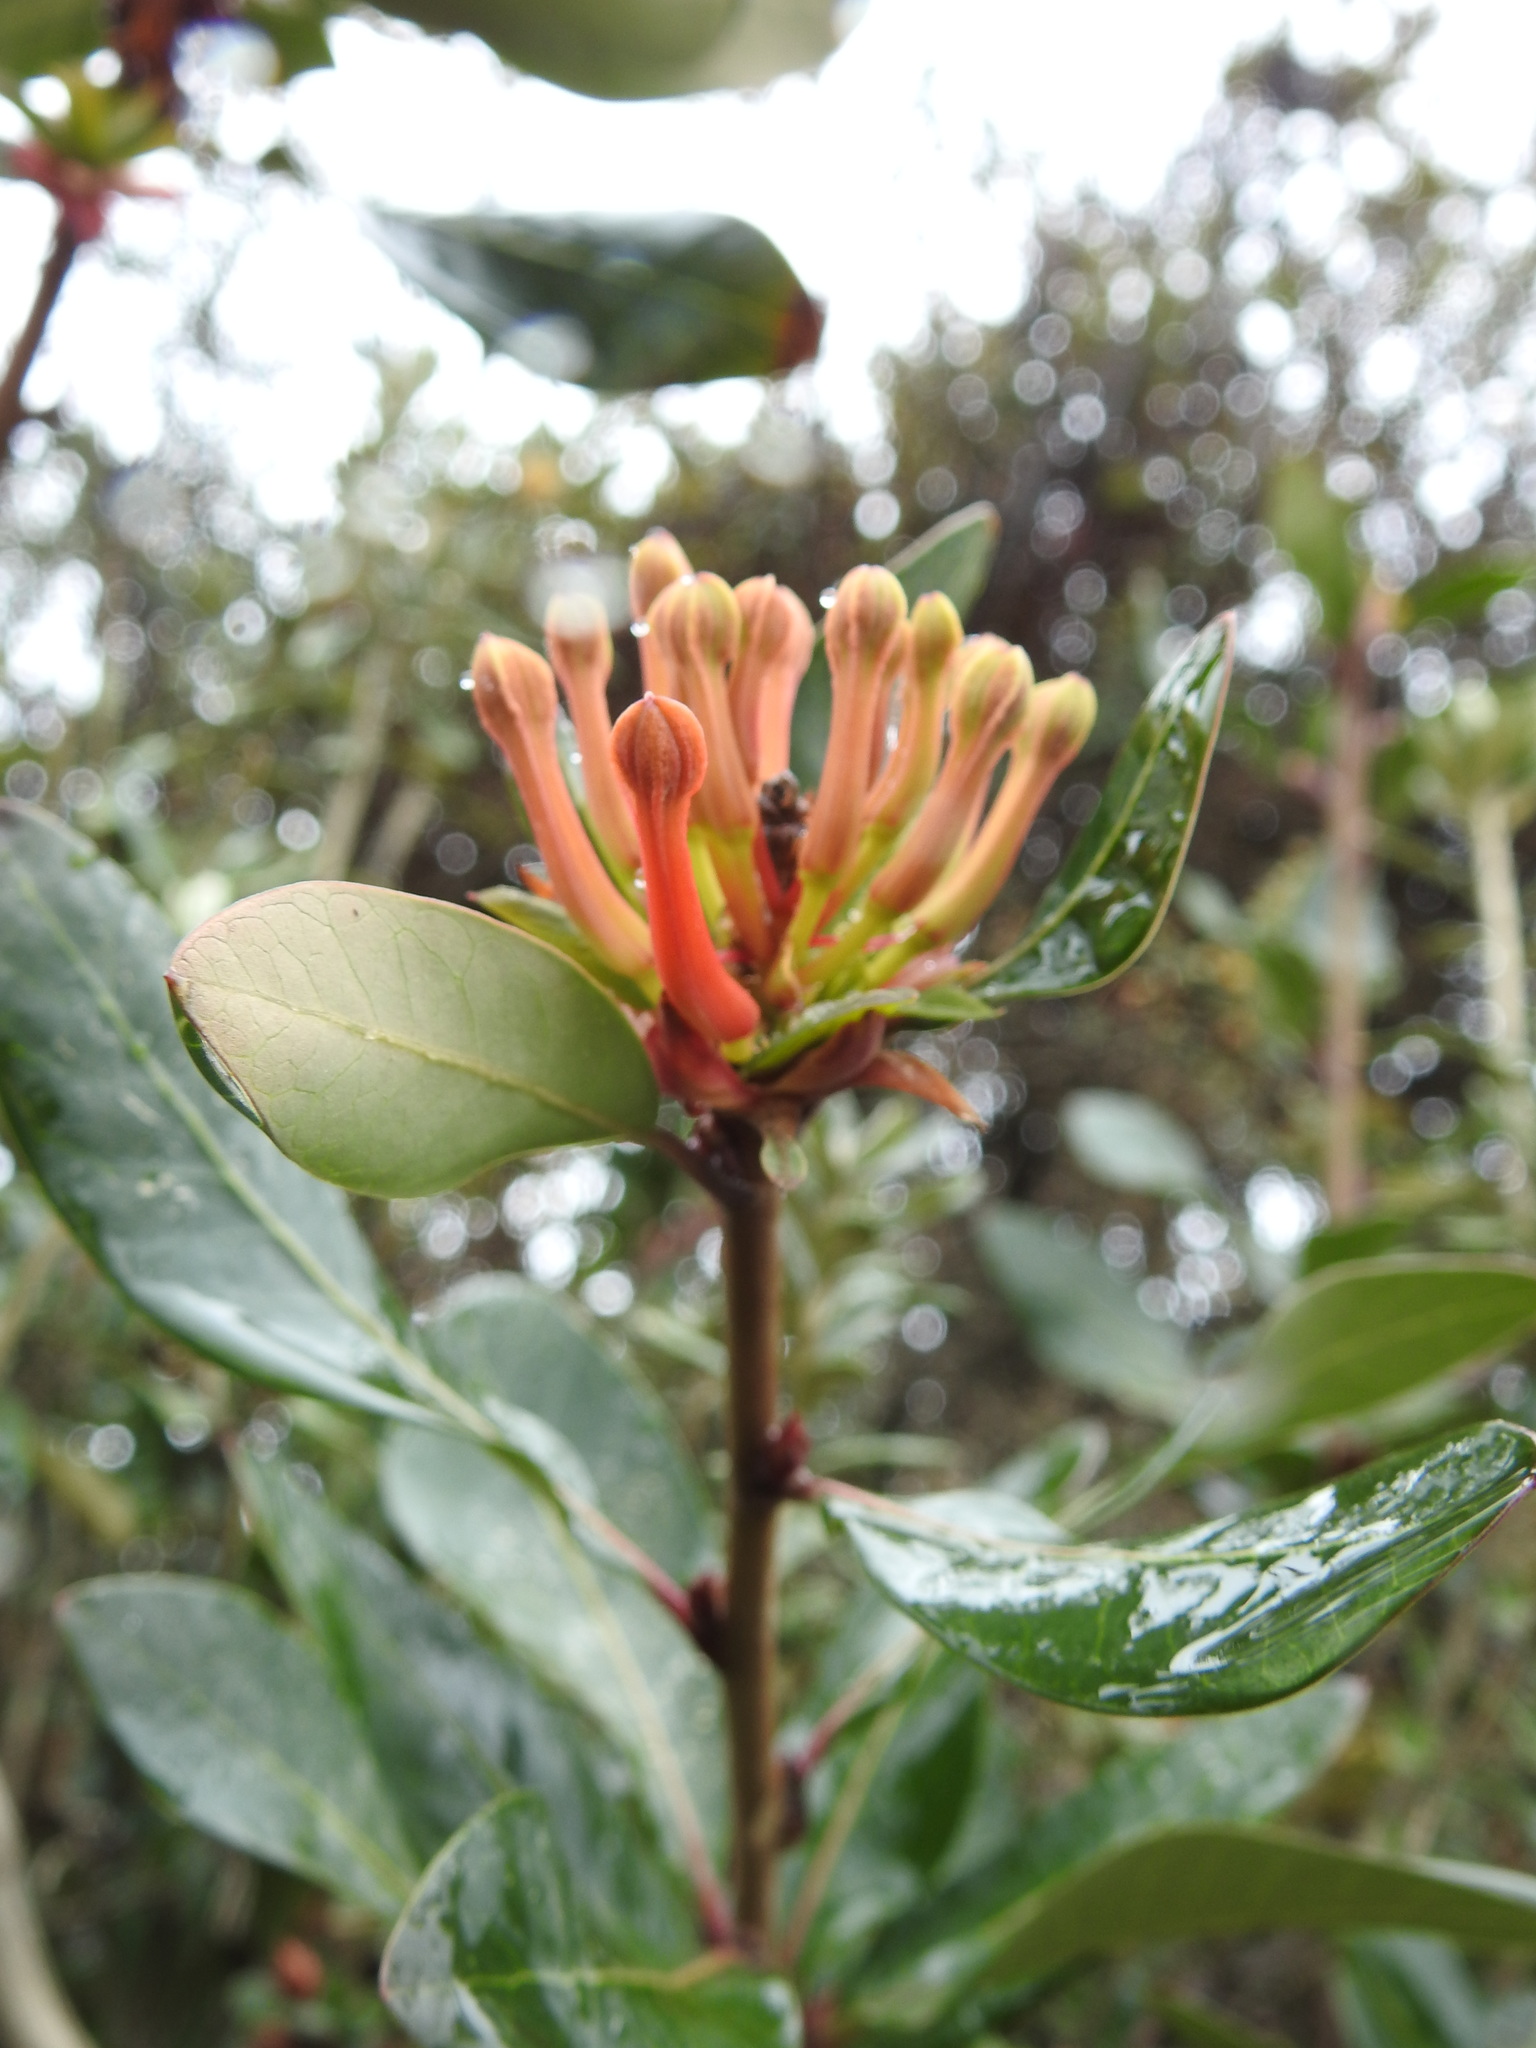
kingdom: Plantae
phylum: Tracheophyta
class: Magnoliopsida
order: Proteales
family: Proteaceae
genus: Embothrium
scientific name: Embothrium coccineum
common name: Chilean firebush
